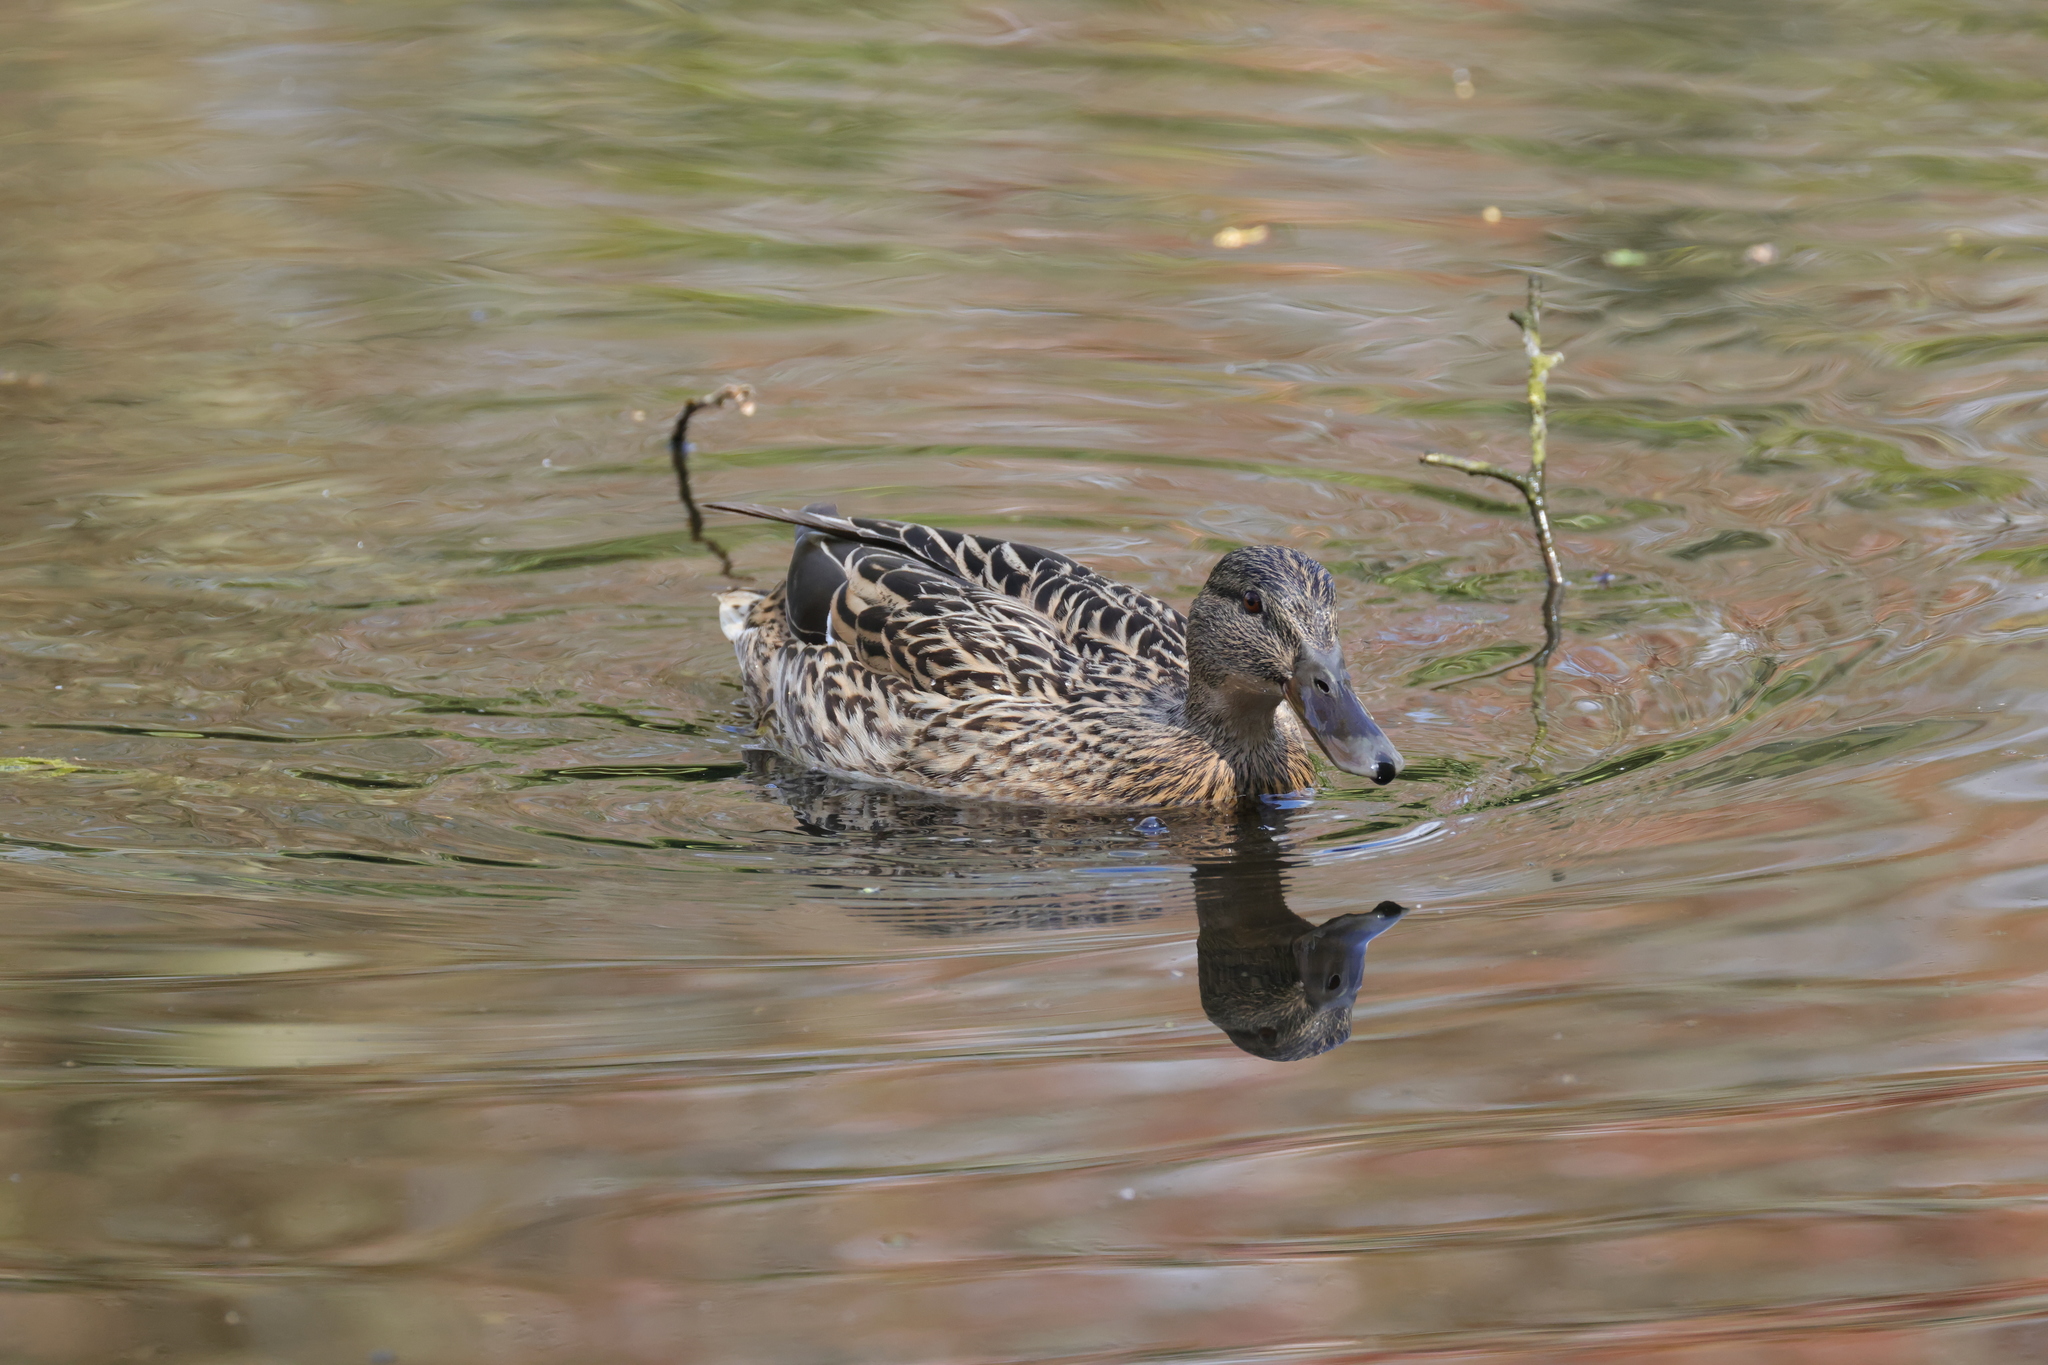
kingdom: Animalia
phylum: Chordata
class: Aves
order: Anseriformes
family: Anatidae
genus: Anas
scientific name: Anas platyrhynchos
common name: Mallard
